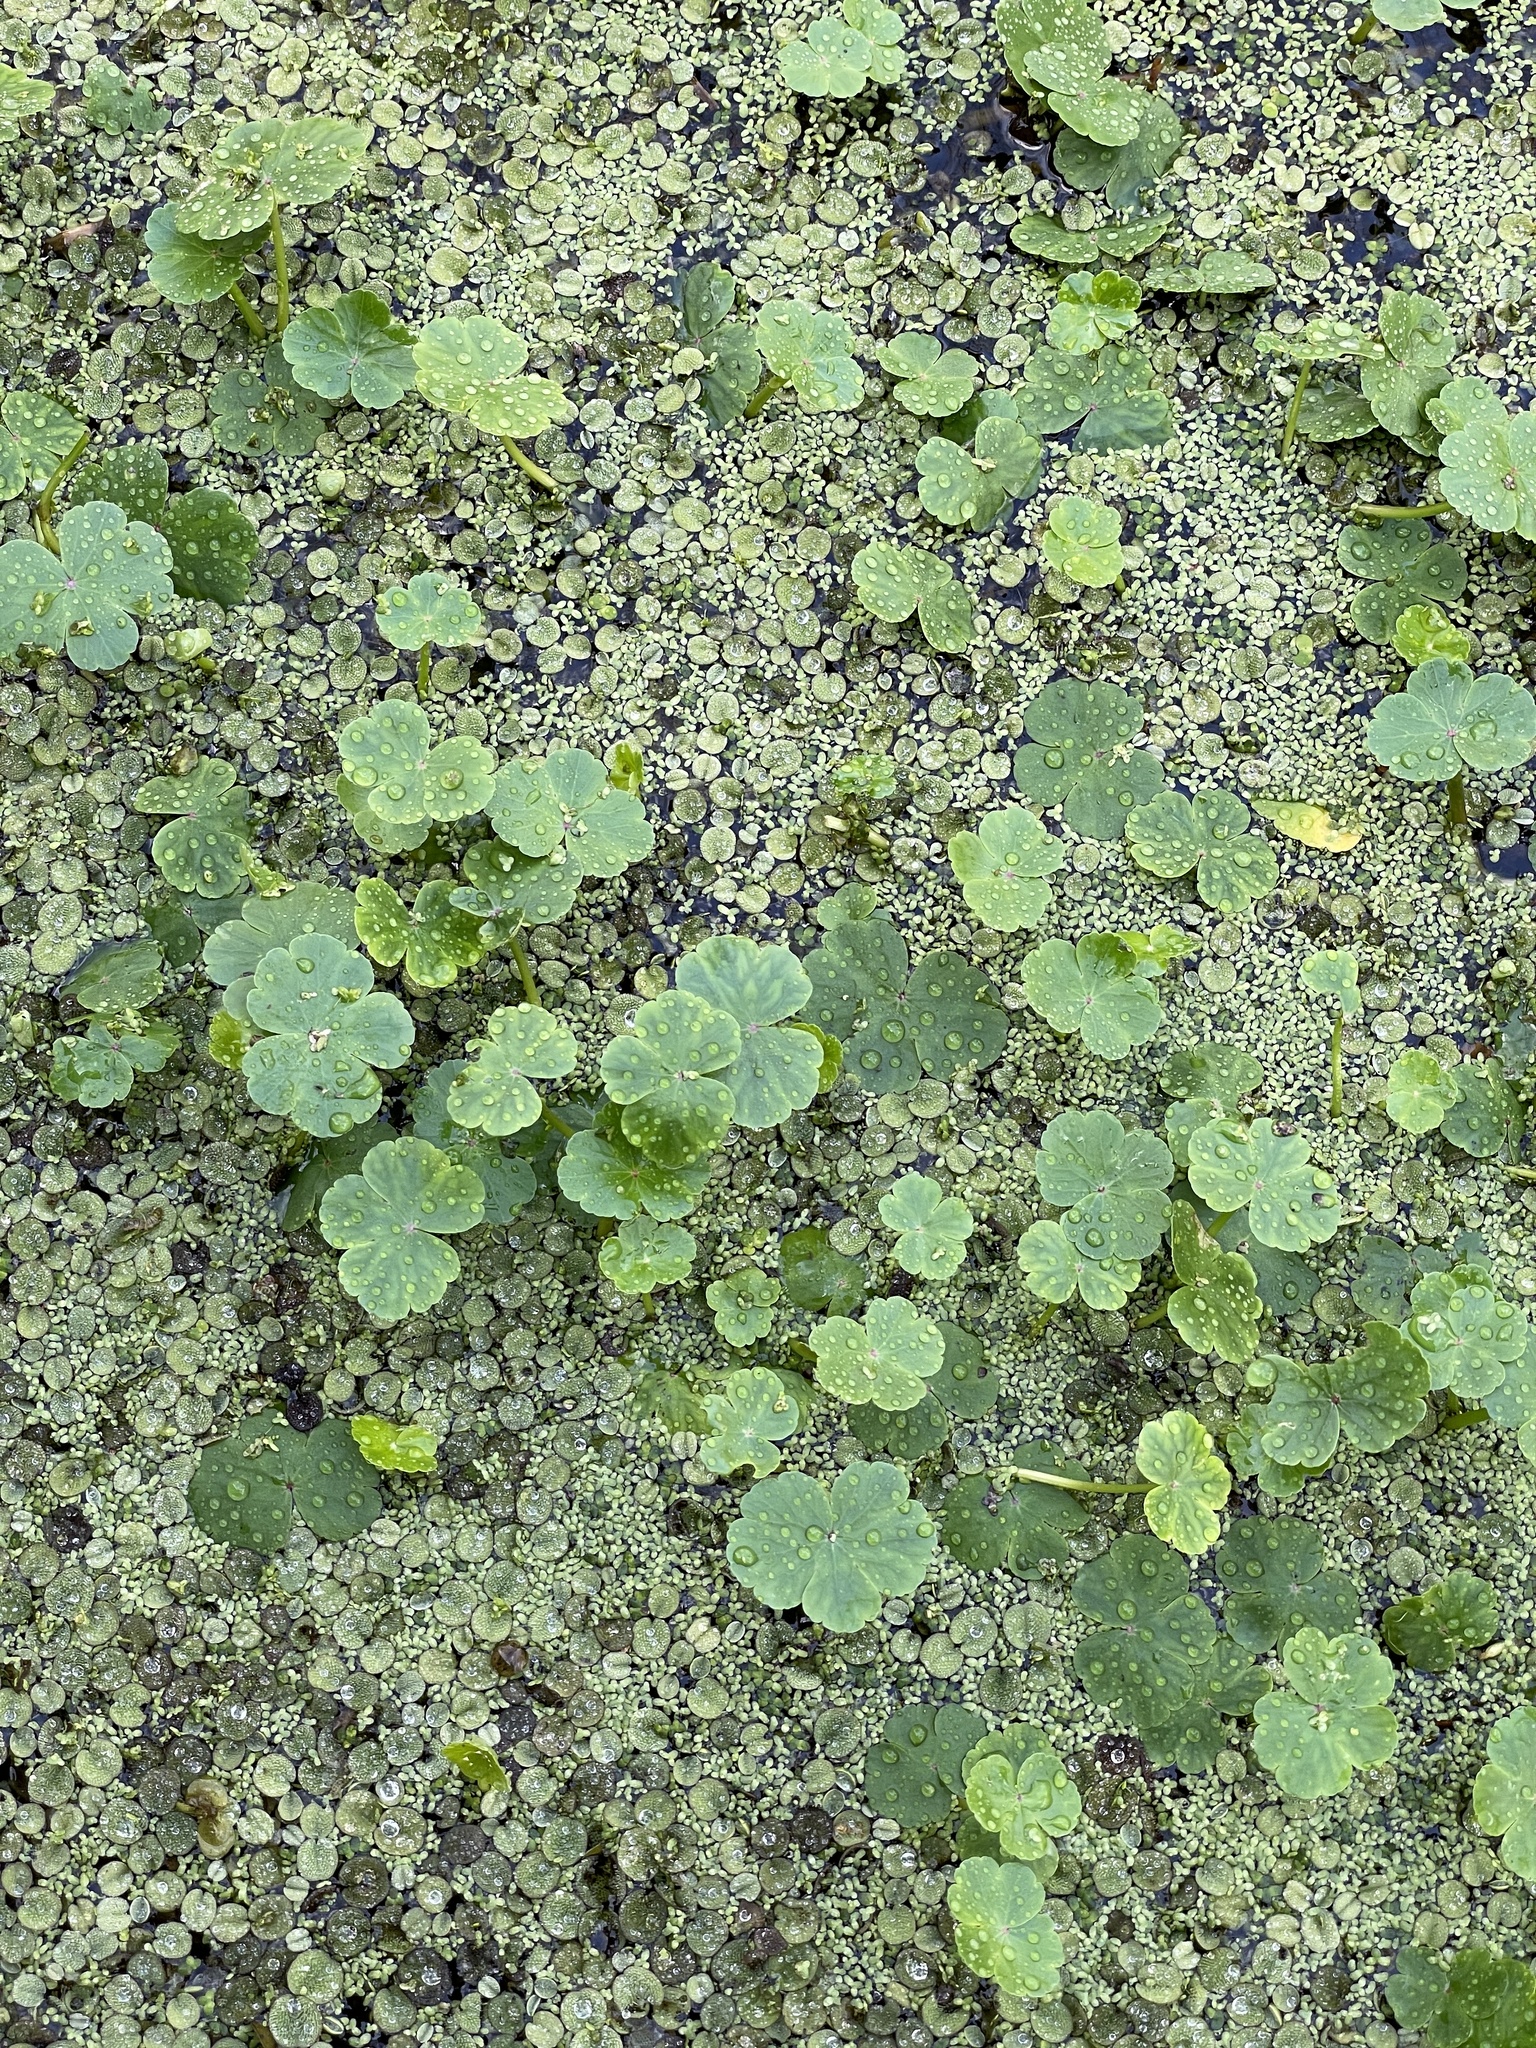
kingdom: Plantae
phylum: Tracheophyta
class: Magnoliopsida
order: Apiales
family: Araliaceae
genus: Hydrocotyle
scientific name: Hydrocotyle ranunculoides
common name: Floating pennywort
